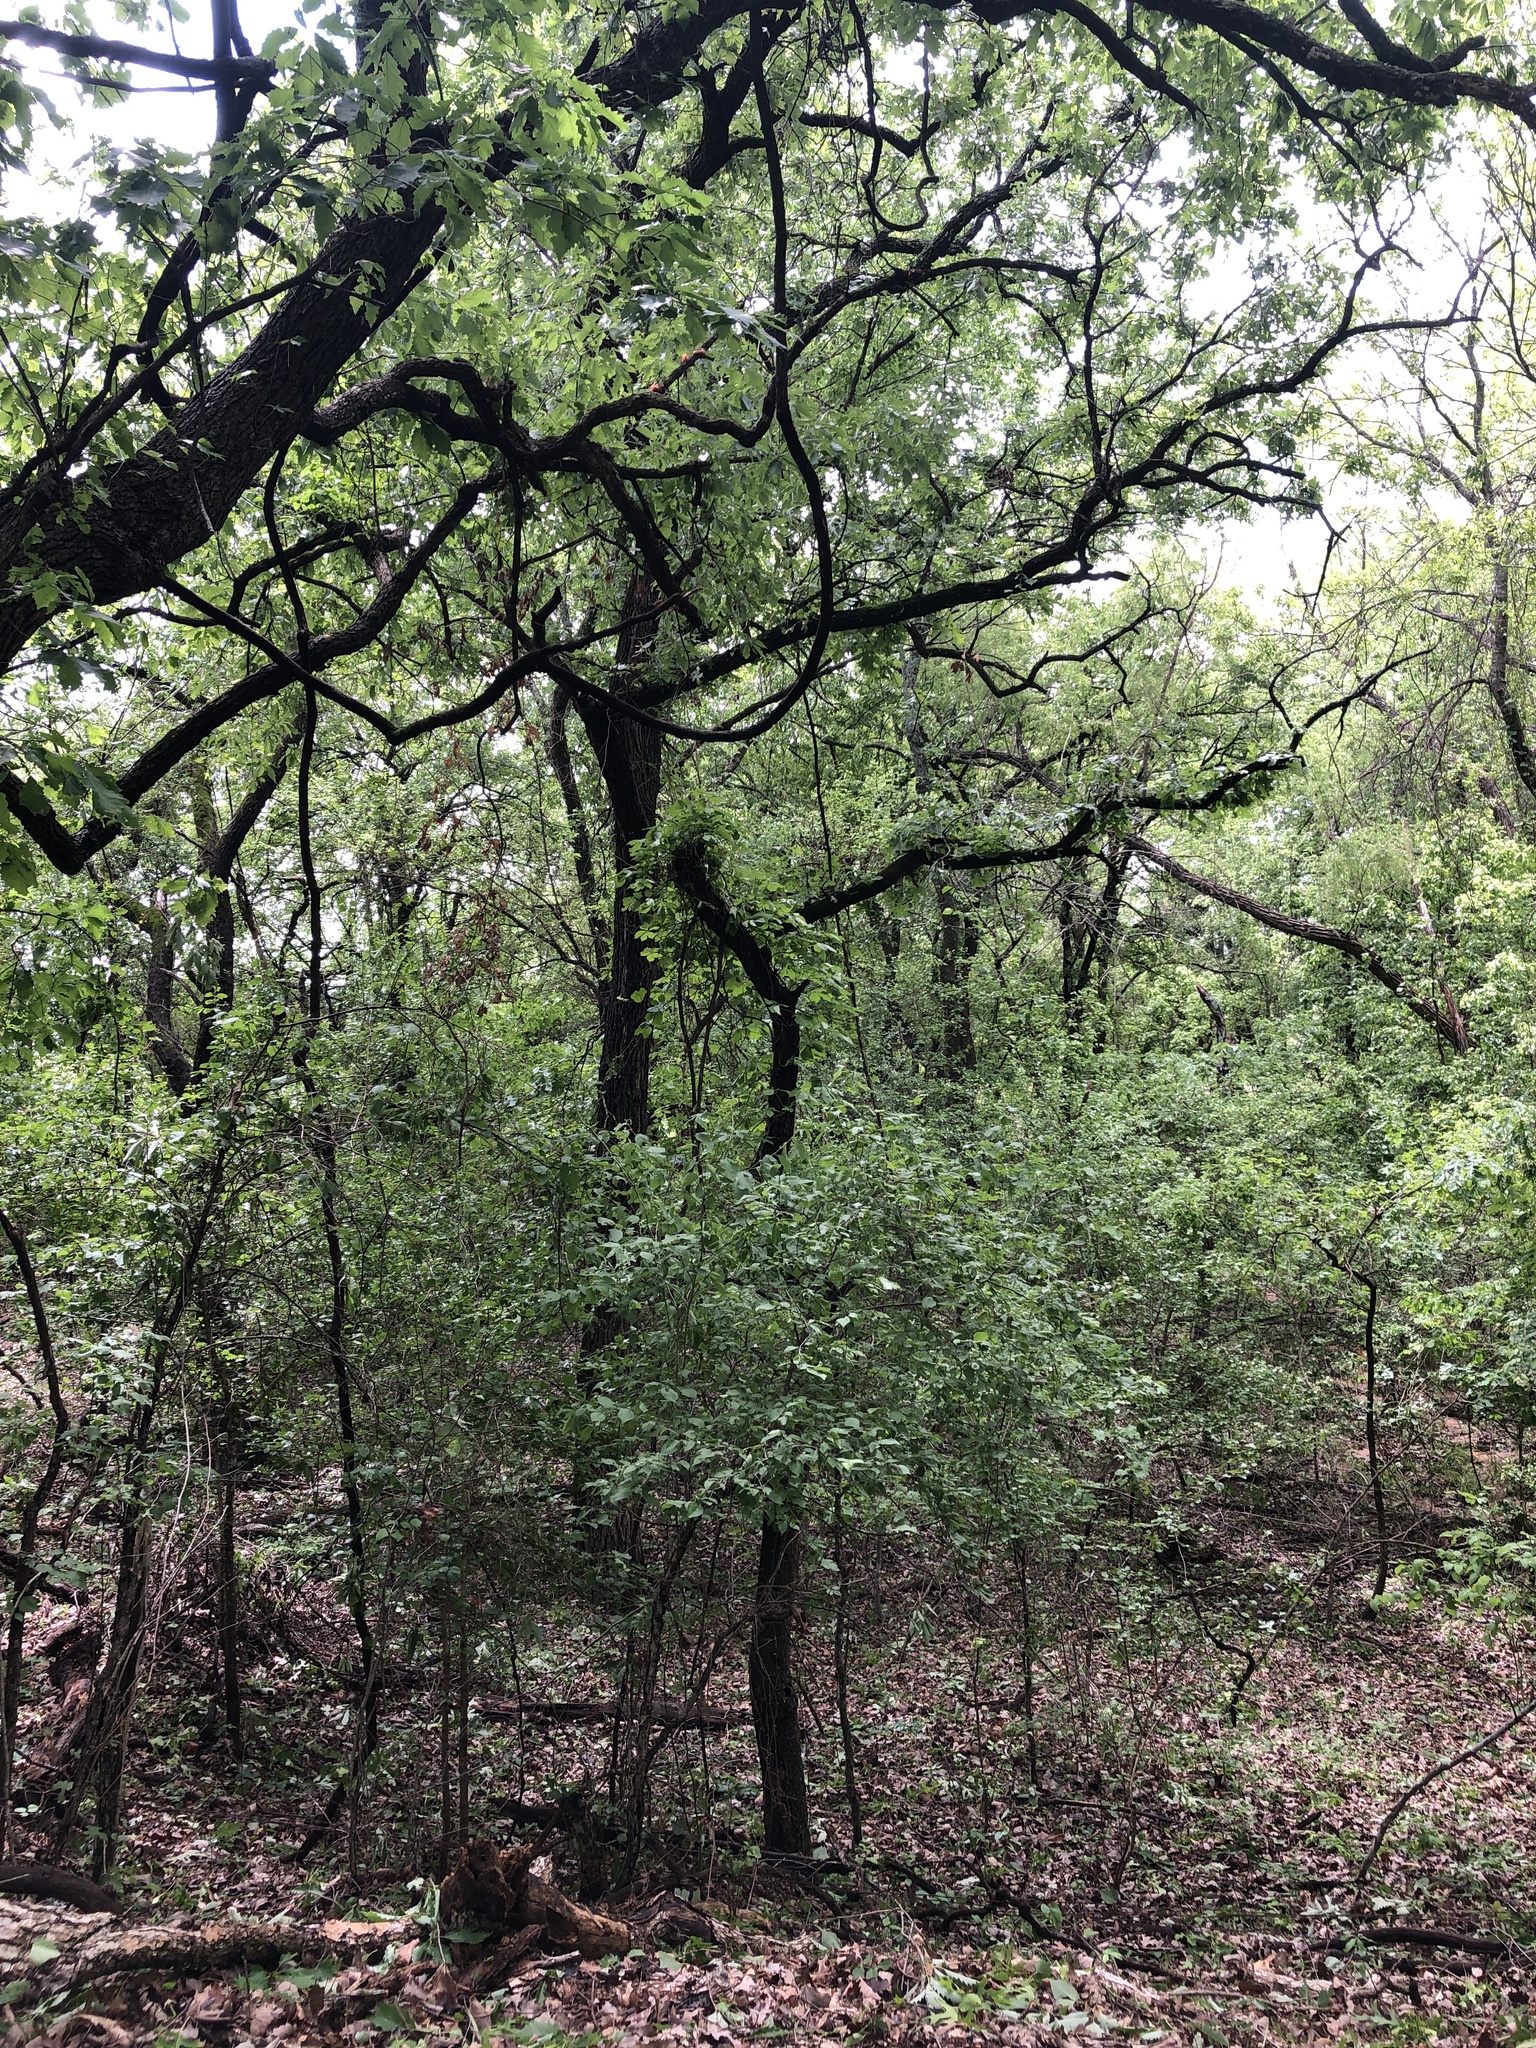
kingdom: Animalia
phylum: Chordata
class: Aves
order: Passeriformes
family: Vireonidae
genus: Vireo
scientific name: Vireo griseus
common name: White-eyed vireo
